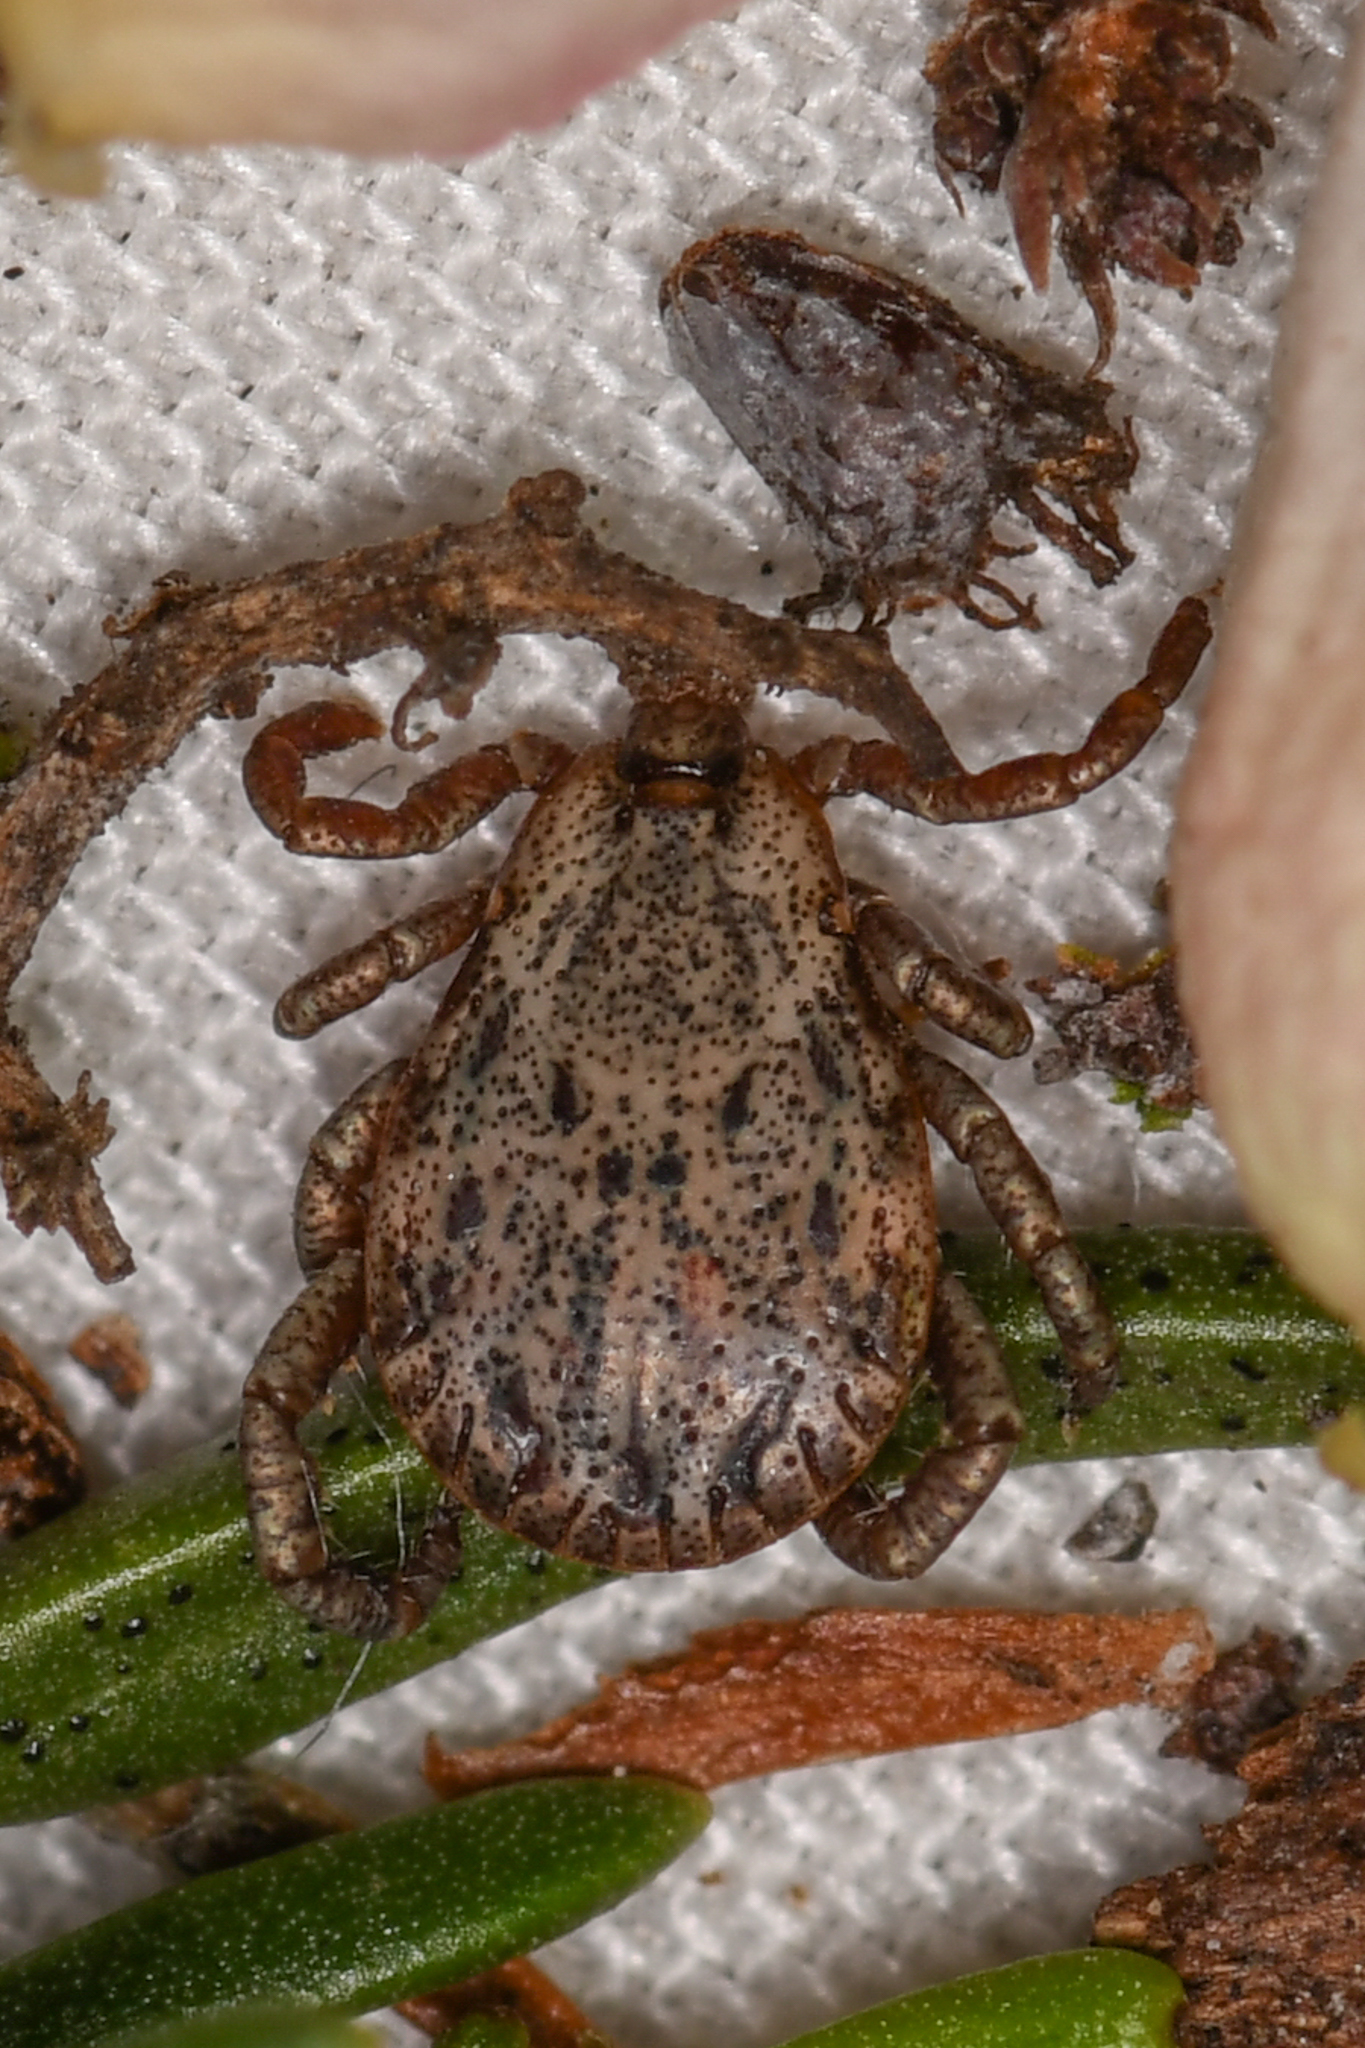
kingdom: Animalia
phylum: Arthropoda
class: Arachnida
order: Ixodida
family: Ixodidae
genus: Dermacentor
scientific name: Dermacentor occidentalis
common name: Net tick
